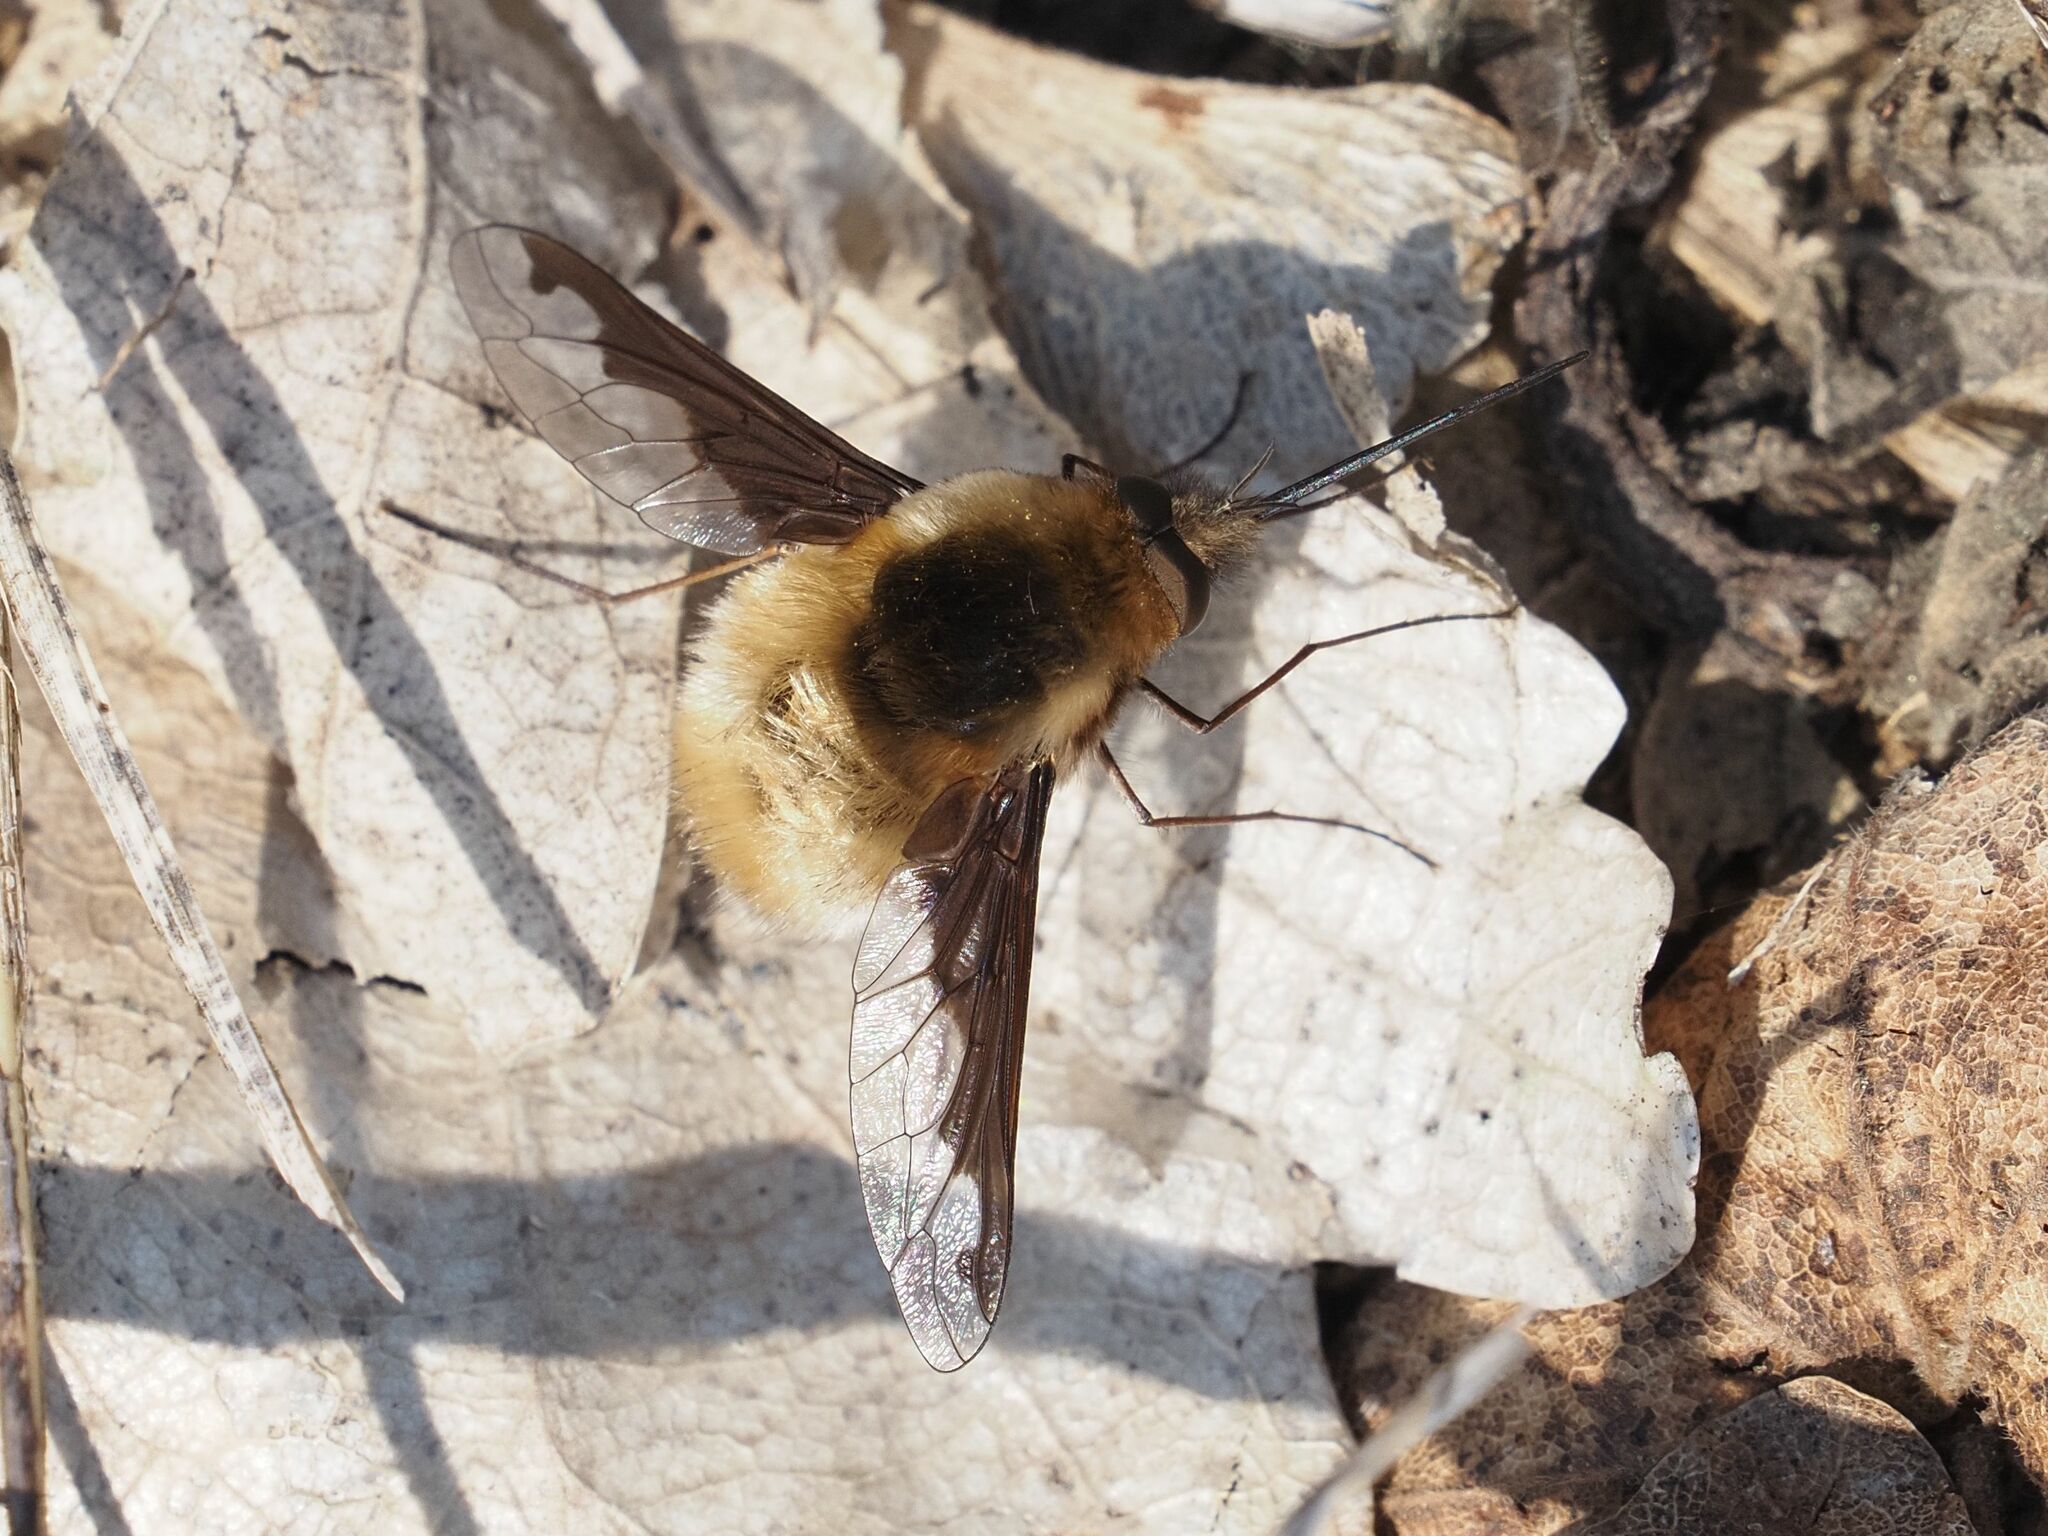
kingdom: Animalia
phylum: Arthropoda
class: Insecta
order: Diptera
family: Bombyliidae
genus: Bombylius
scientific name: Bombylius major
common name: Bee fly
